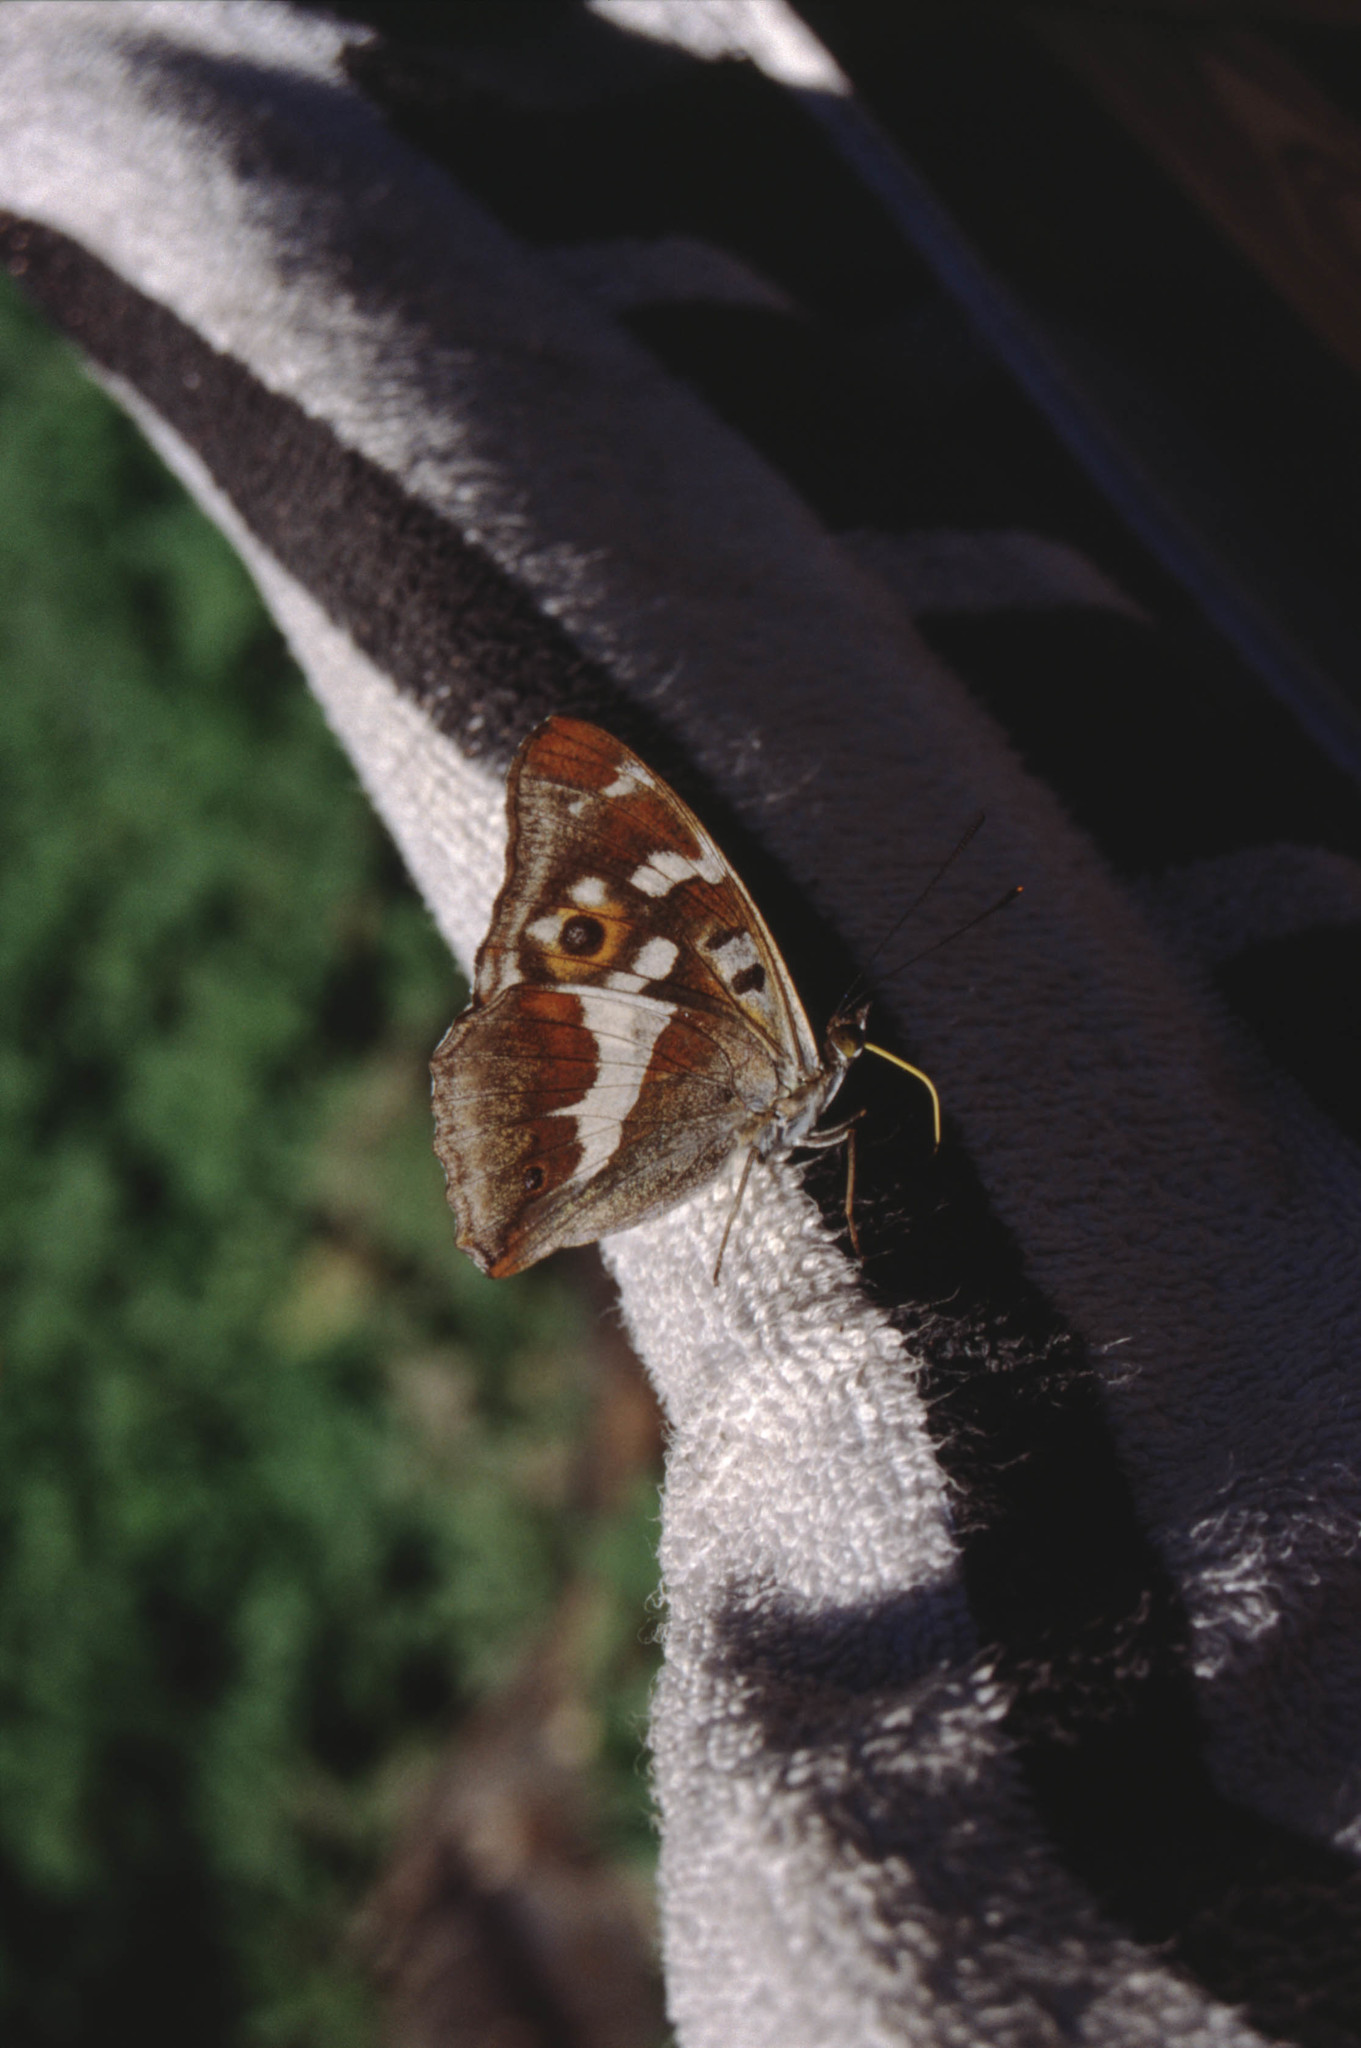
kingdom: Animalia
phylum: Arthropoda
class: Insecta
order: Lepidoptera
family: Nymphalidae
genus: Apatura
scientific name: Apatura iris
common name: Purple emperor
